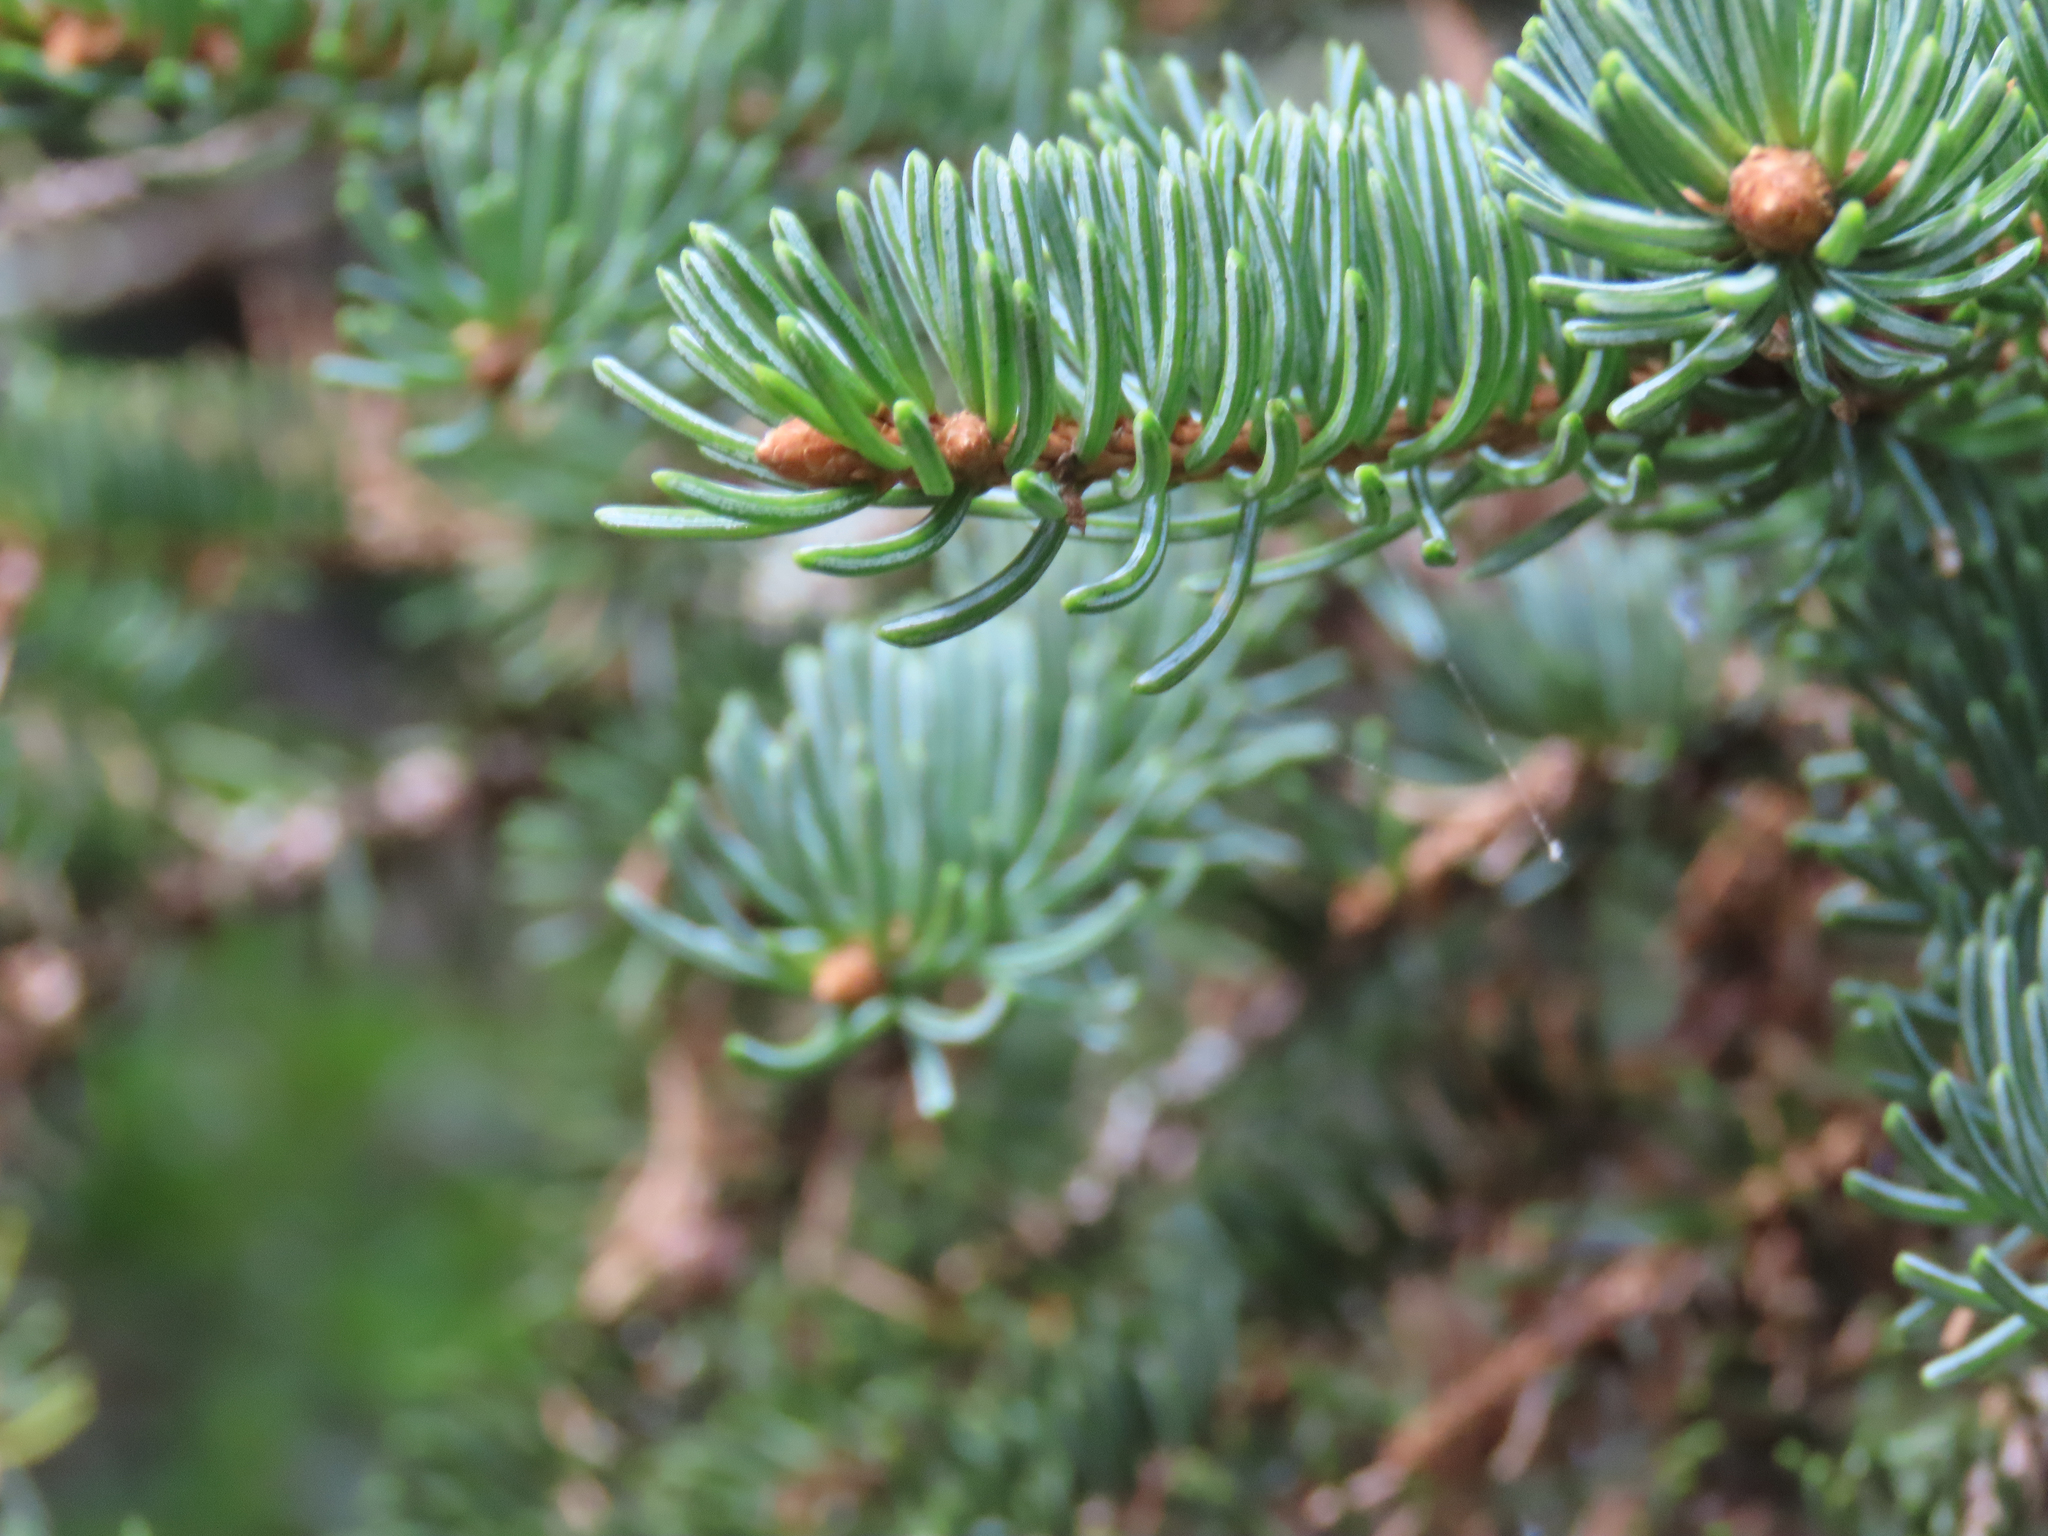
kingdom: Plantae
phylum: Tracheophyta
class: Pinopsida
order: Pinales
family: Pinaceae
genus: Picea
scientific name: Picea glauca
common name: White spruce
